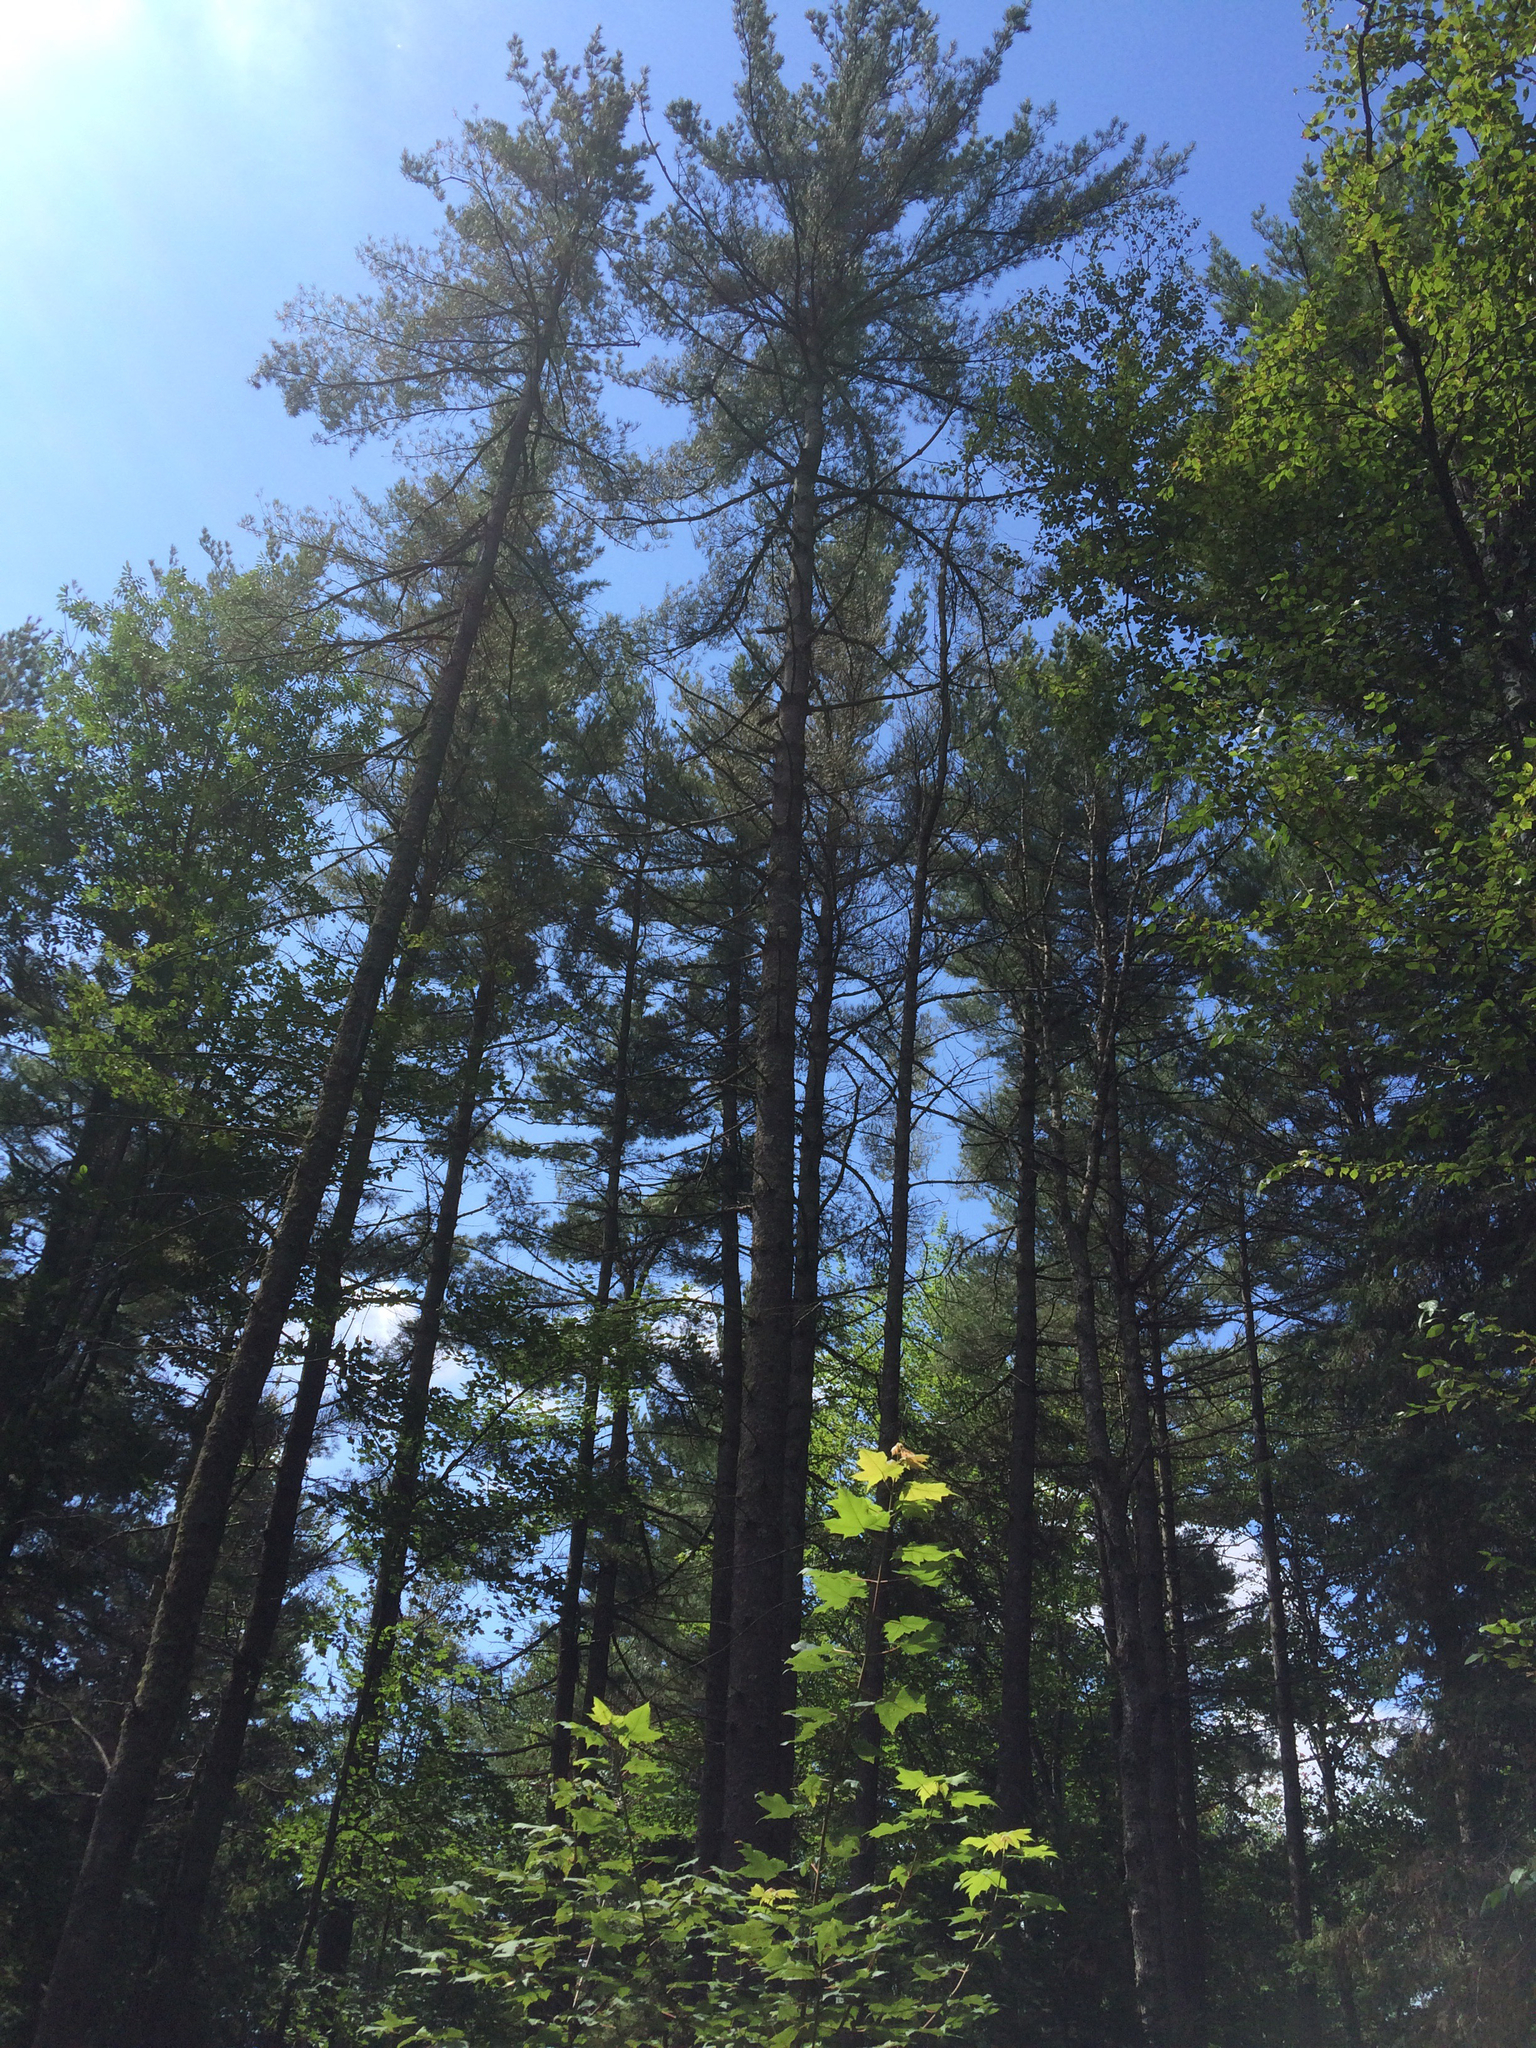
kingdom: Plantae
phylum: Tracheophyta
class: Pinopsida
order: Pinales
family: Pinaceae
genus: Pinus
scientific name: Pinus strobus
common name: Weymouth pine
